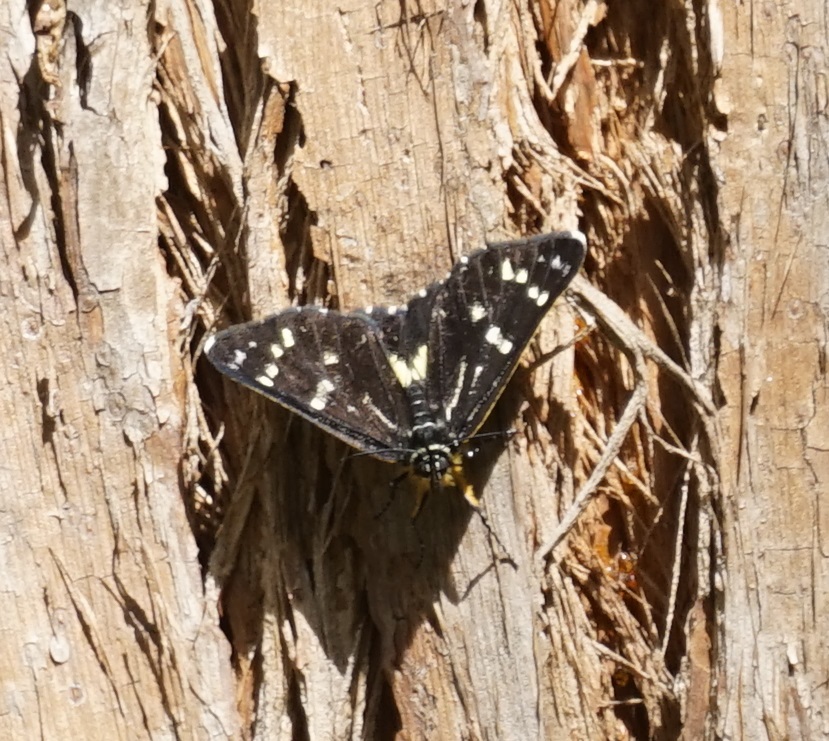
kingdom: Animalia
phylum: Arthropoda
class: Insecta
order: Lepidoptera
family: Noctuidae
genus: Cruria
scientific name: Cruria synopla
